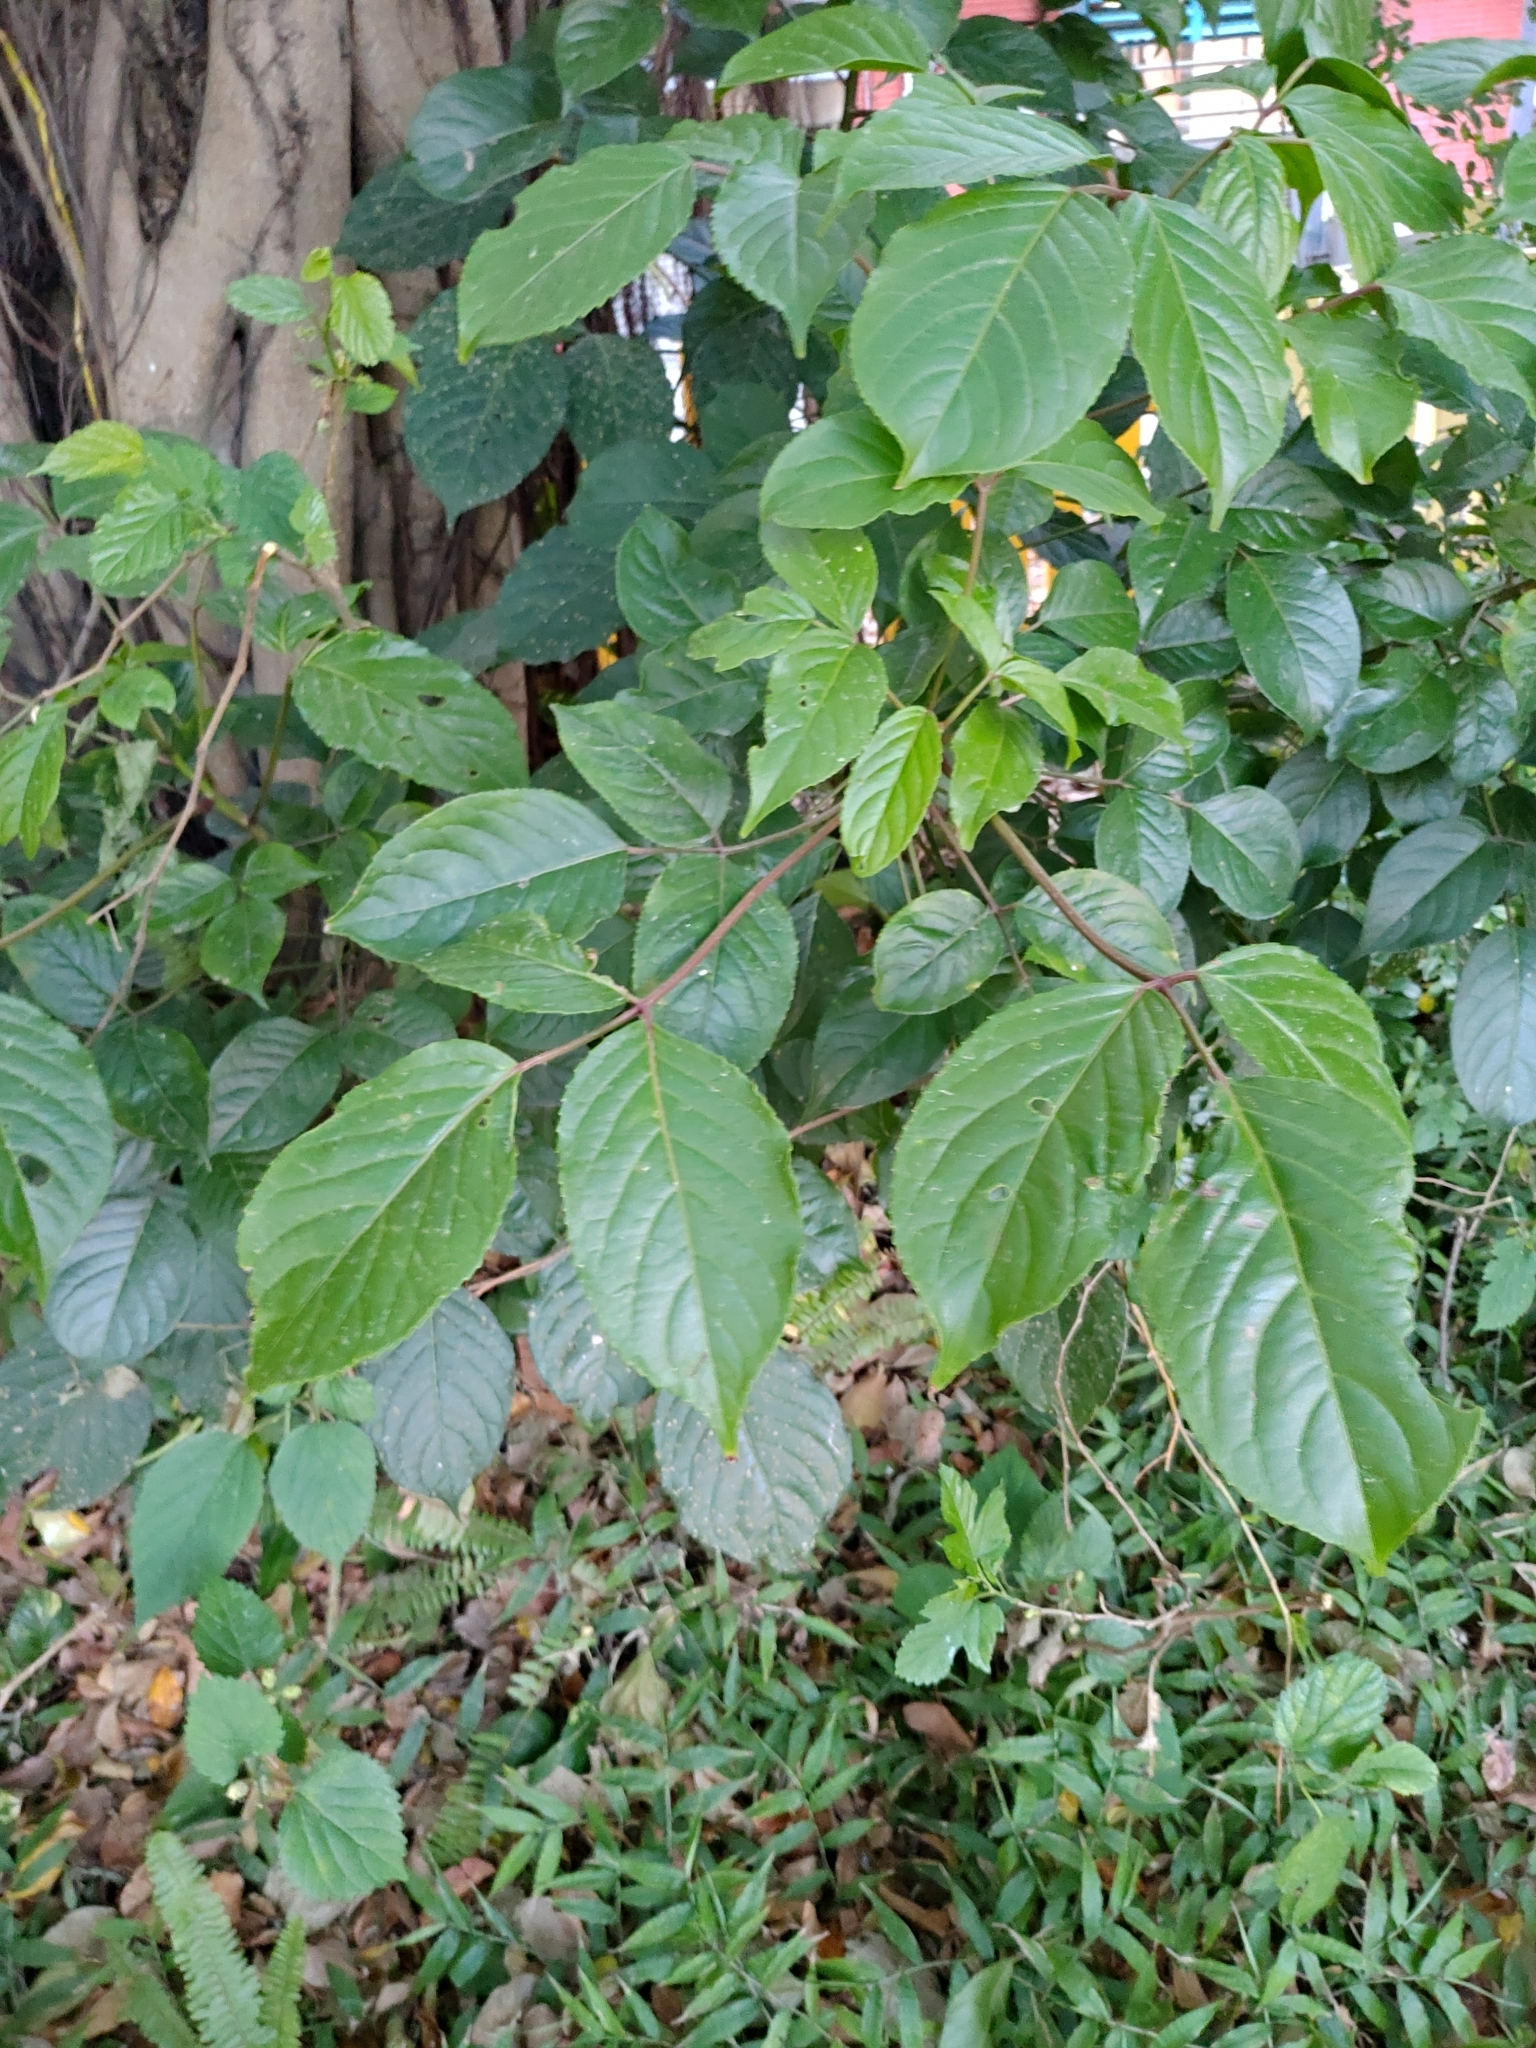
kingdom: Plantae
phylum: Tracheophyta
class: Magnoliopsida
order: Malpighiales
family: Phyllanthaceae
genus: Bischofia
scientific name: Bischofia javanica
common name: Javanese bishopwood
